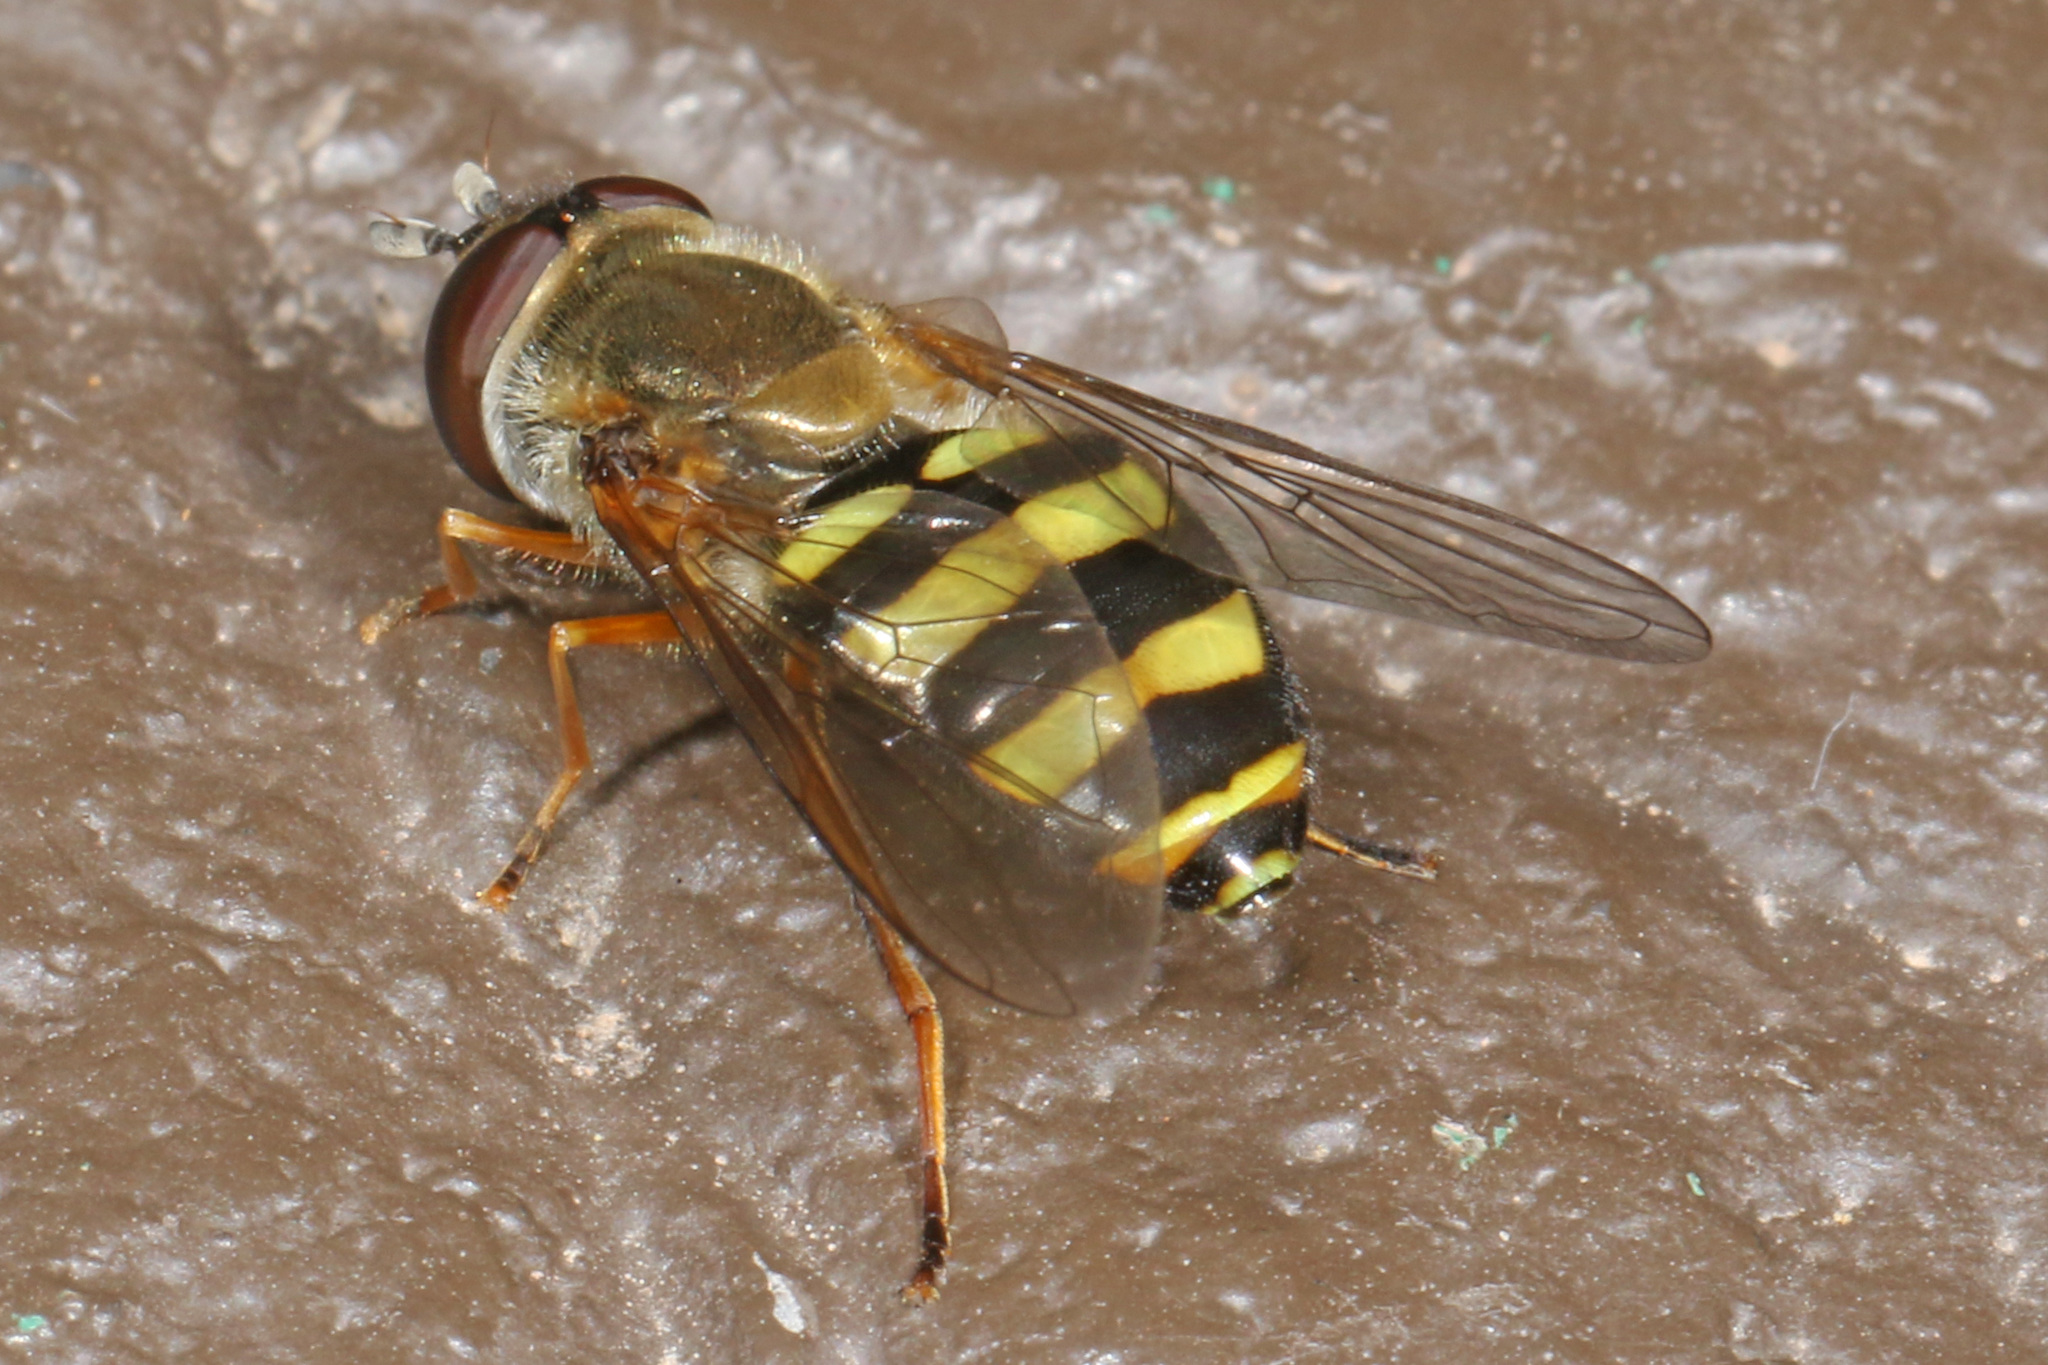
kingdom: Animalia
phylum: Arthropoda
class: Insecta
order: Diptera
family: Syrphidae
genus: Eupeodes
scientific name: Eupeodes
